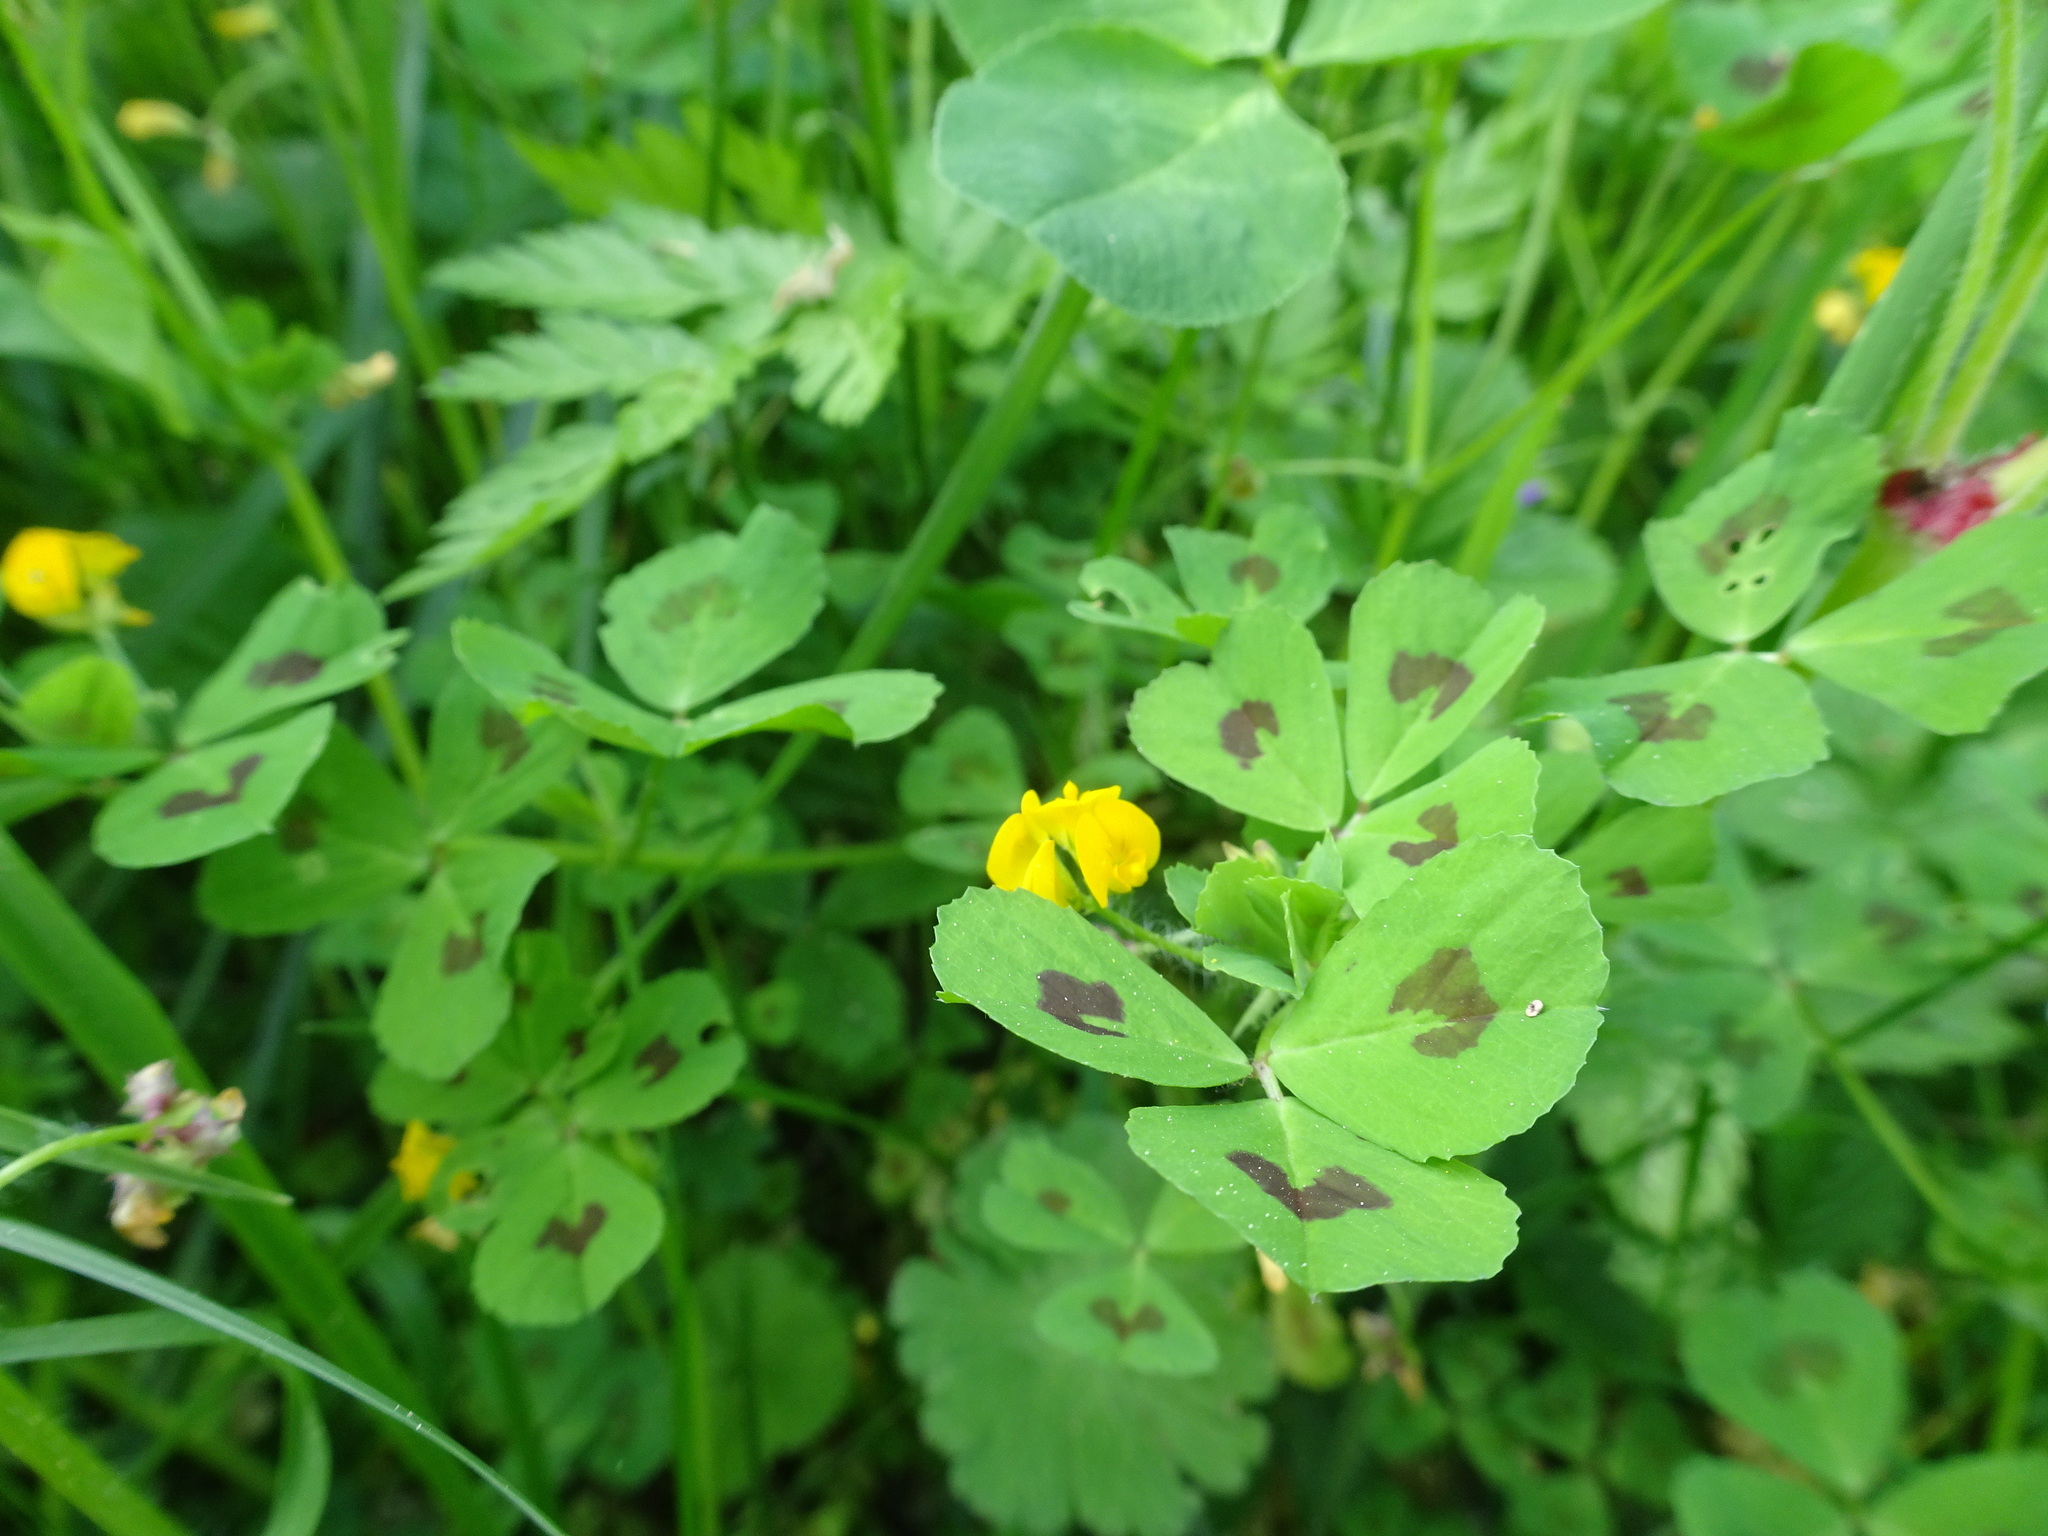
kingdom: Plantae
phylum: Tracheophyta
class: Magnoliopsida
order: Fabales
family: Fabaceae
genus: Medicago
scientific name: Medicago arabica
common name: Spotted medick
